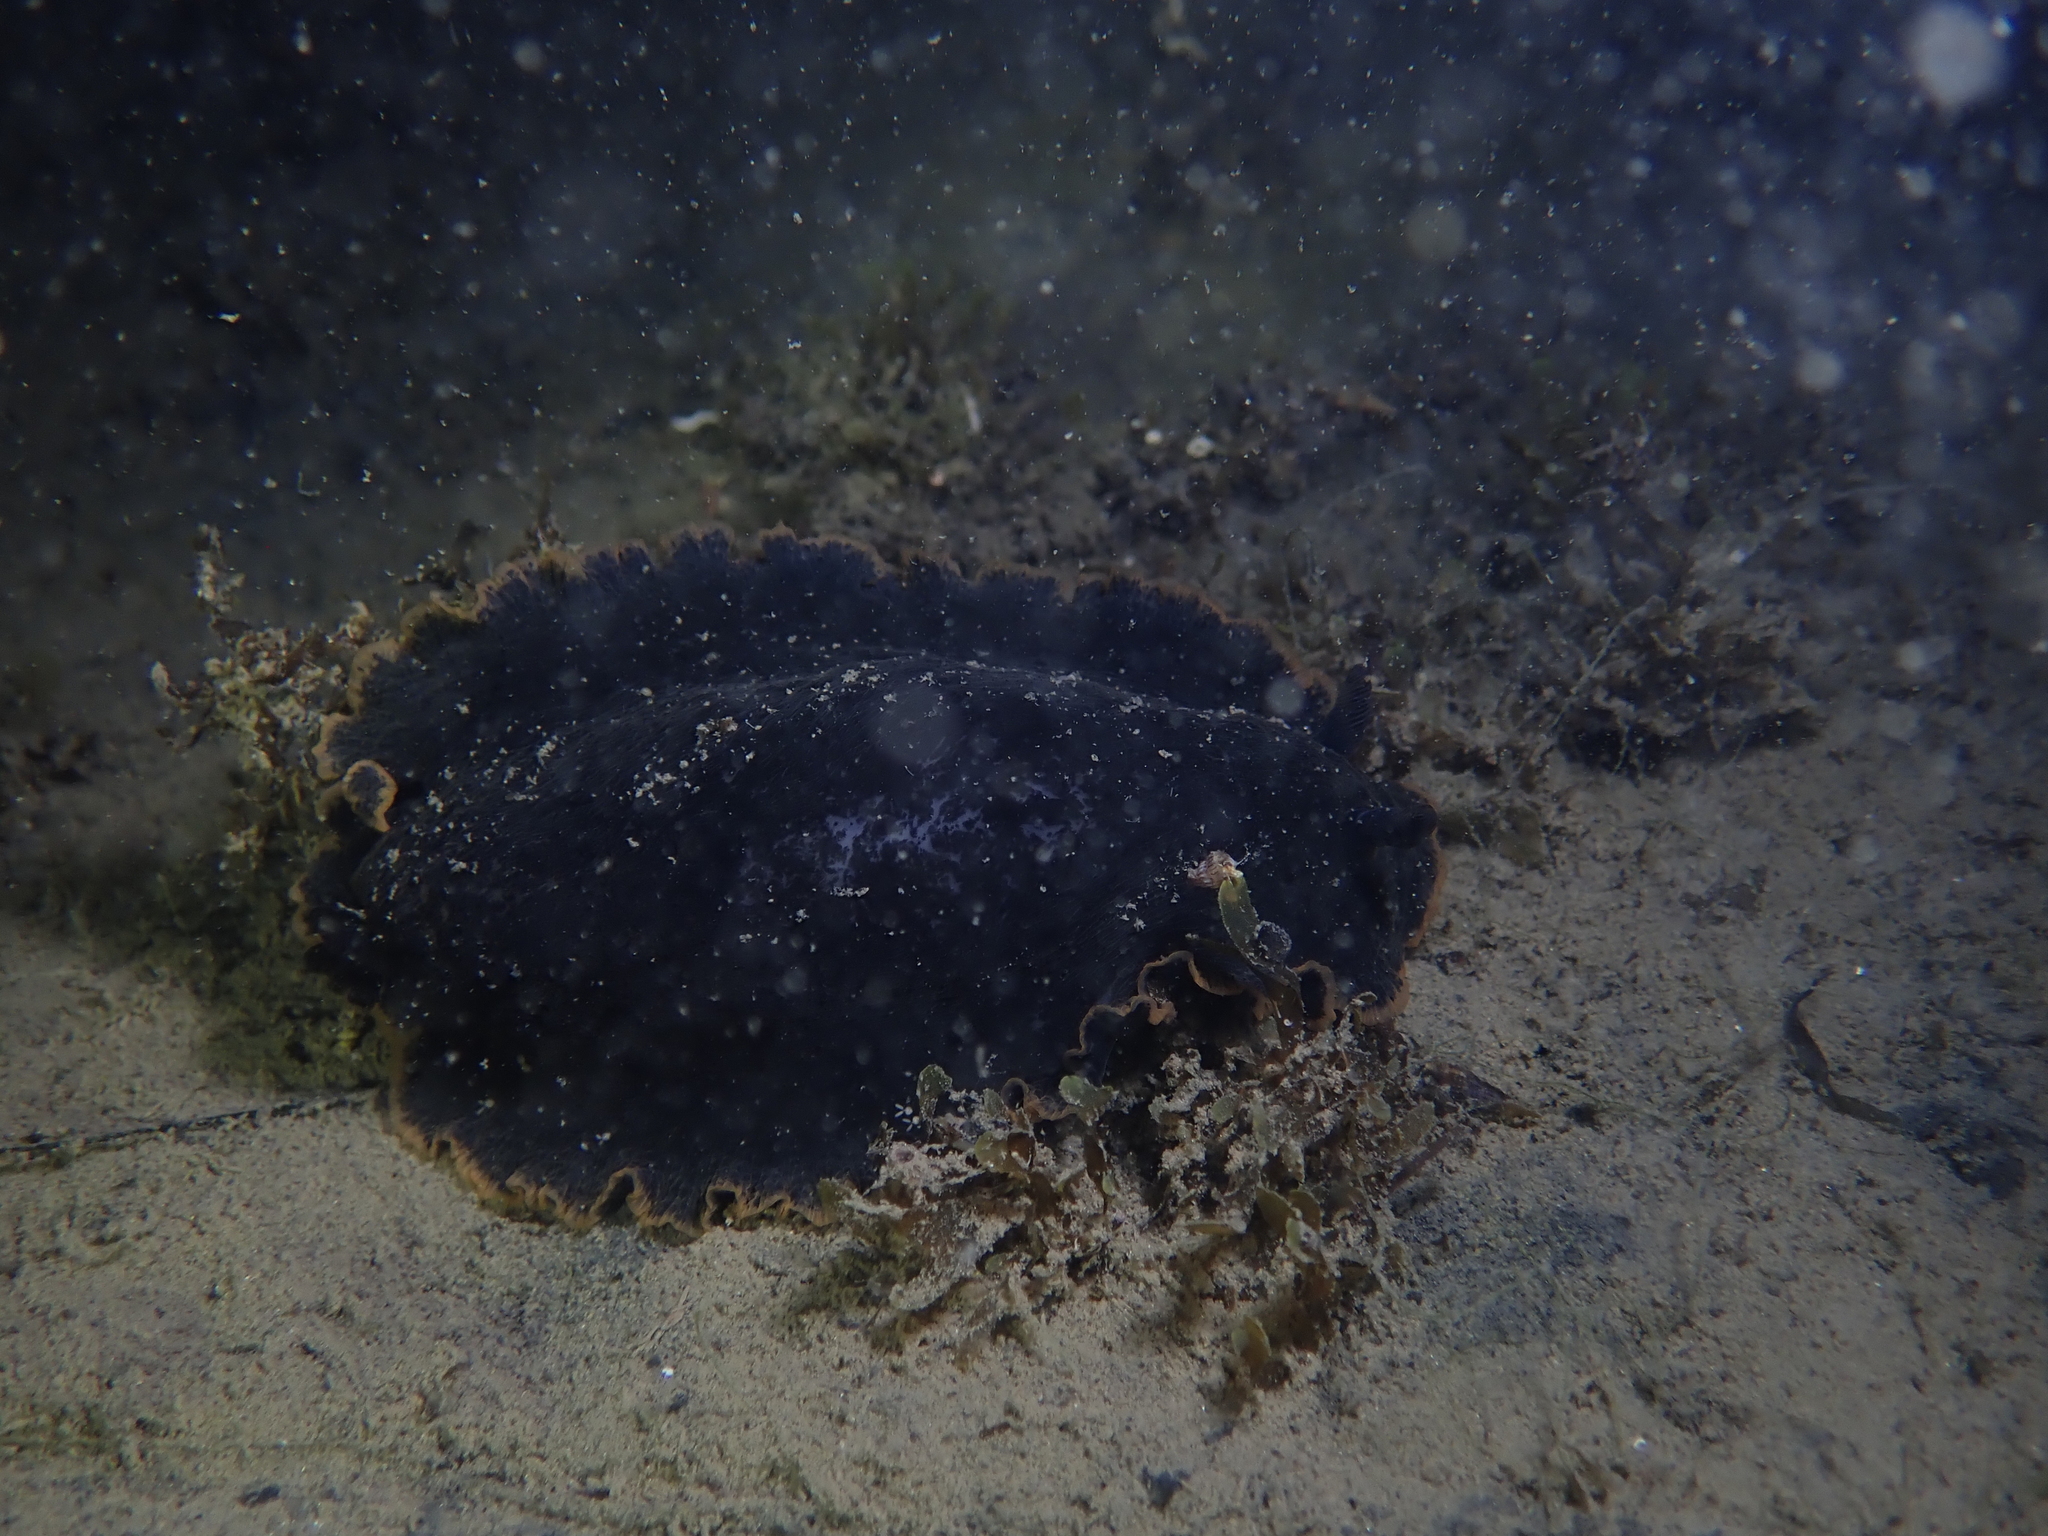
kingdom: Animalia
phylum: Mollusca
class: Gastropoda
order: Nudibranchia
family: Dendrodorididae
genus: Dendrodoris
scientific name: Dendrodoris limbata
